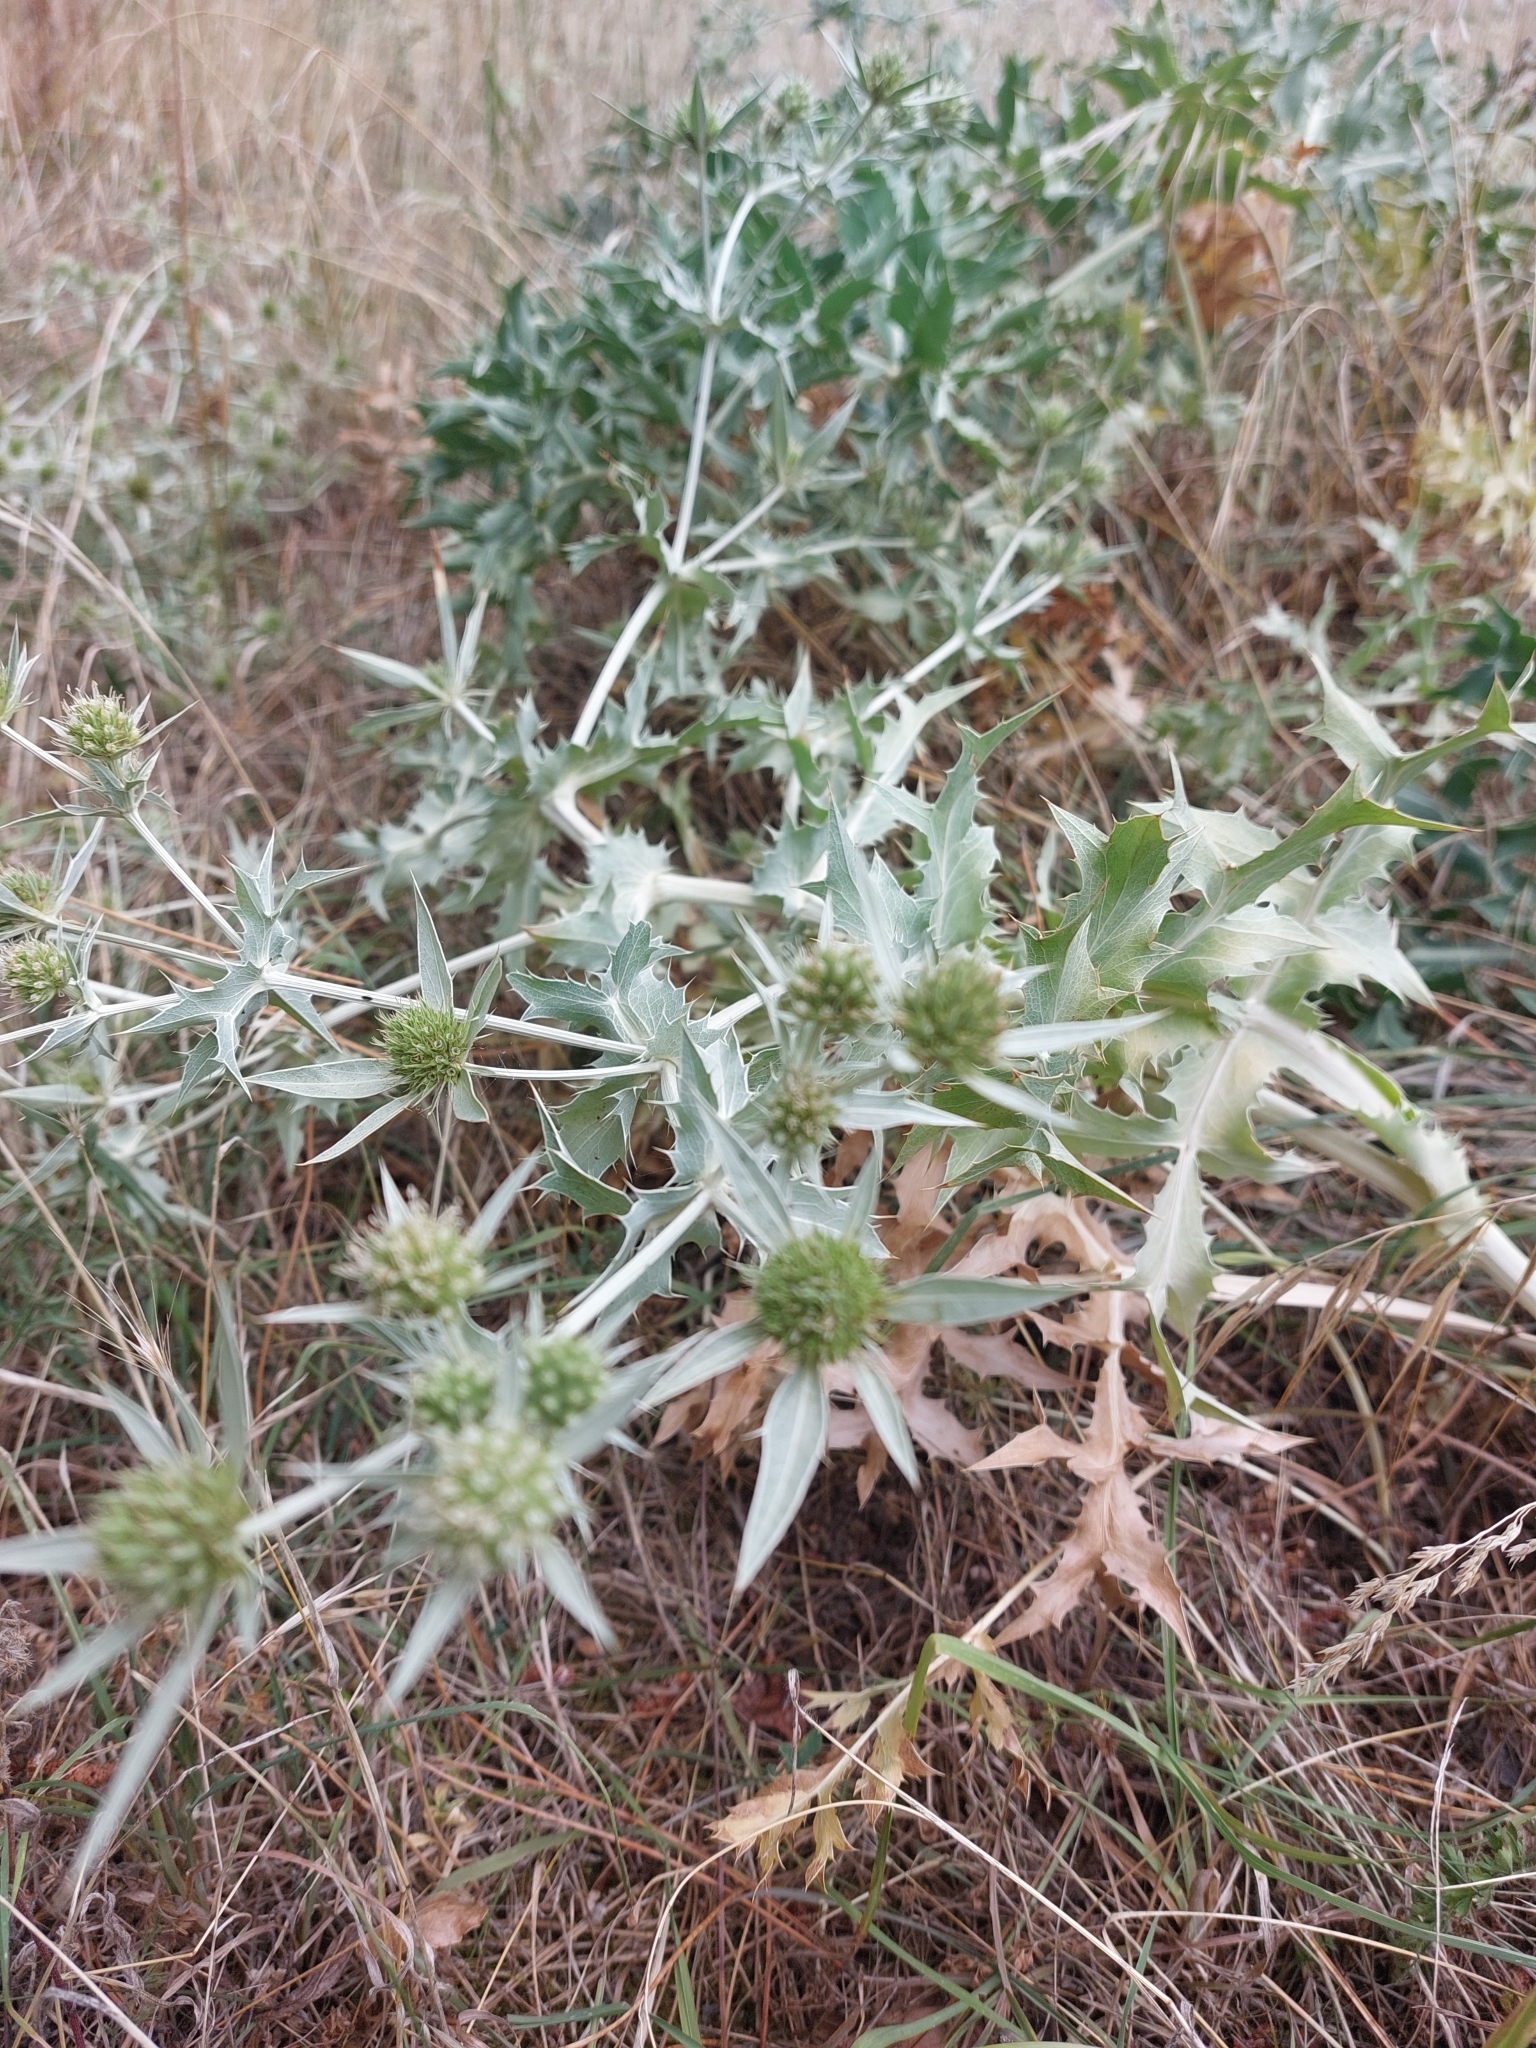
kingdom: Plantae
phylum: Tracheophyta
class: Magnoliopsida
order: Apiales
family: Apiaceae
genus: Eryngium
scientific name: Eryngium campestre
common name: Field eryngo
